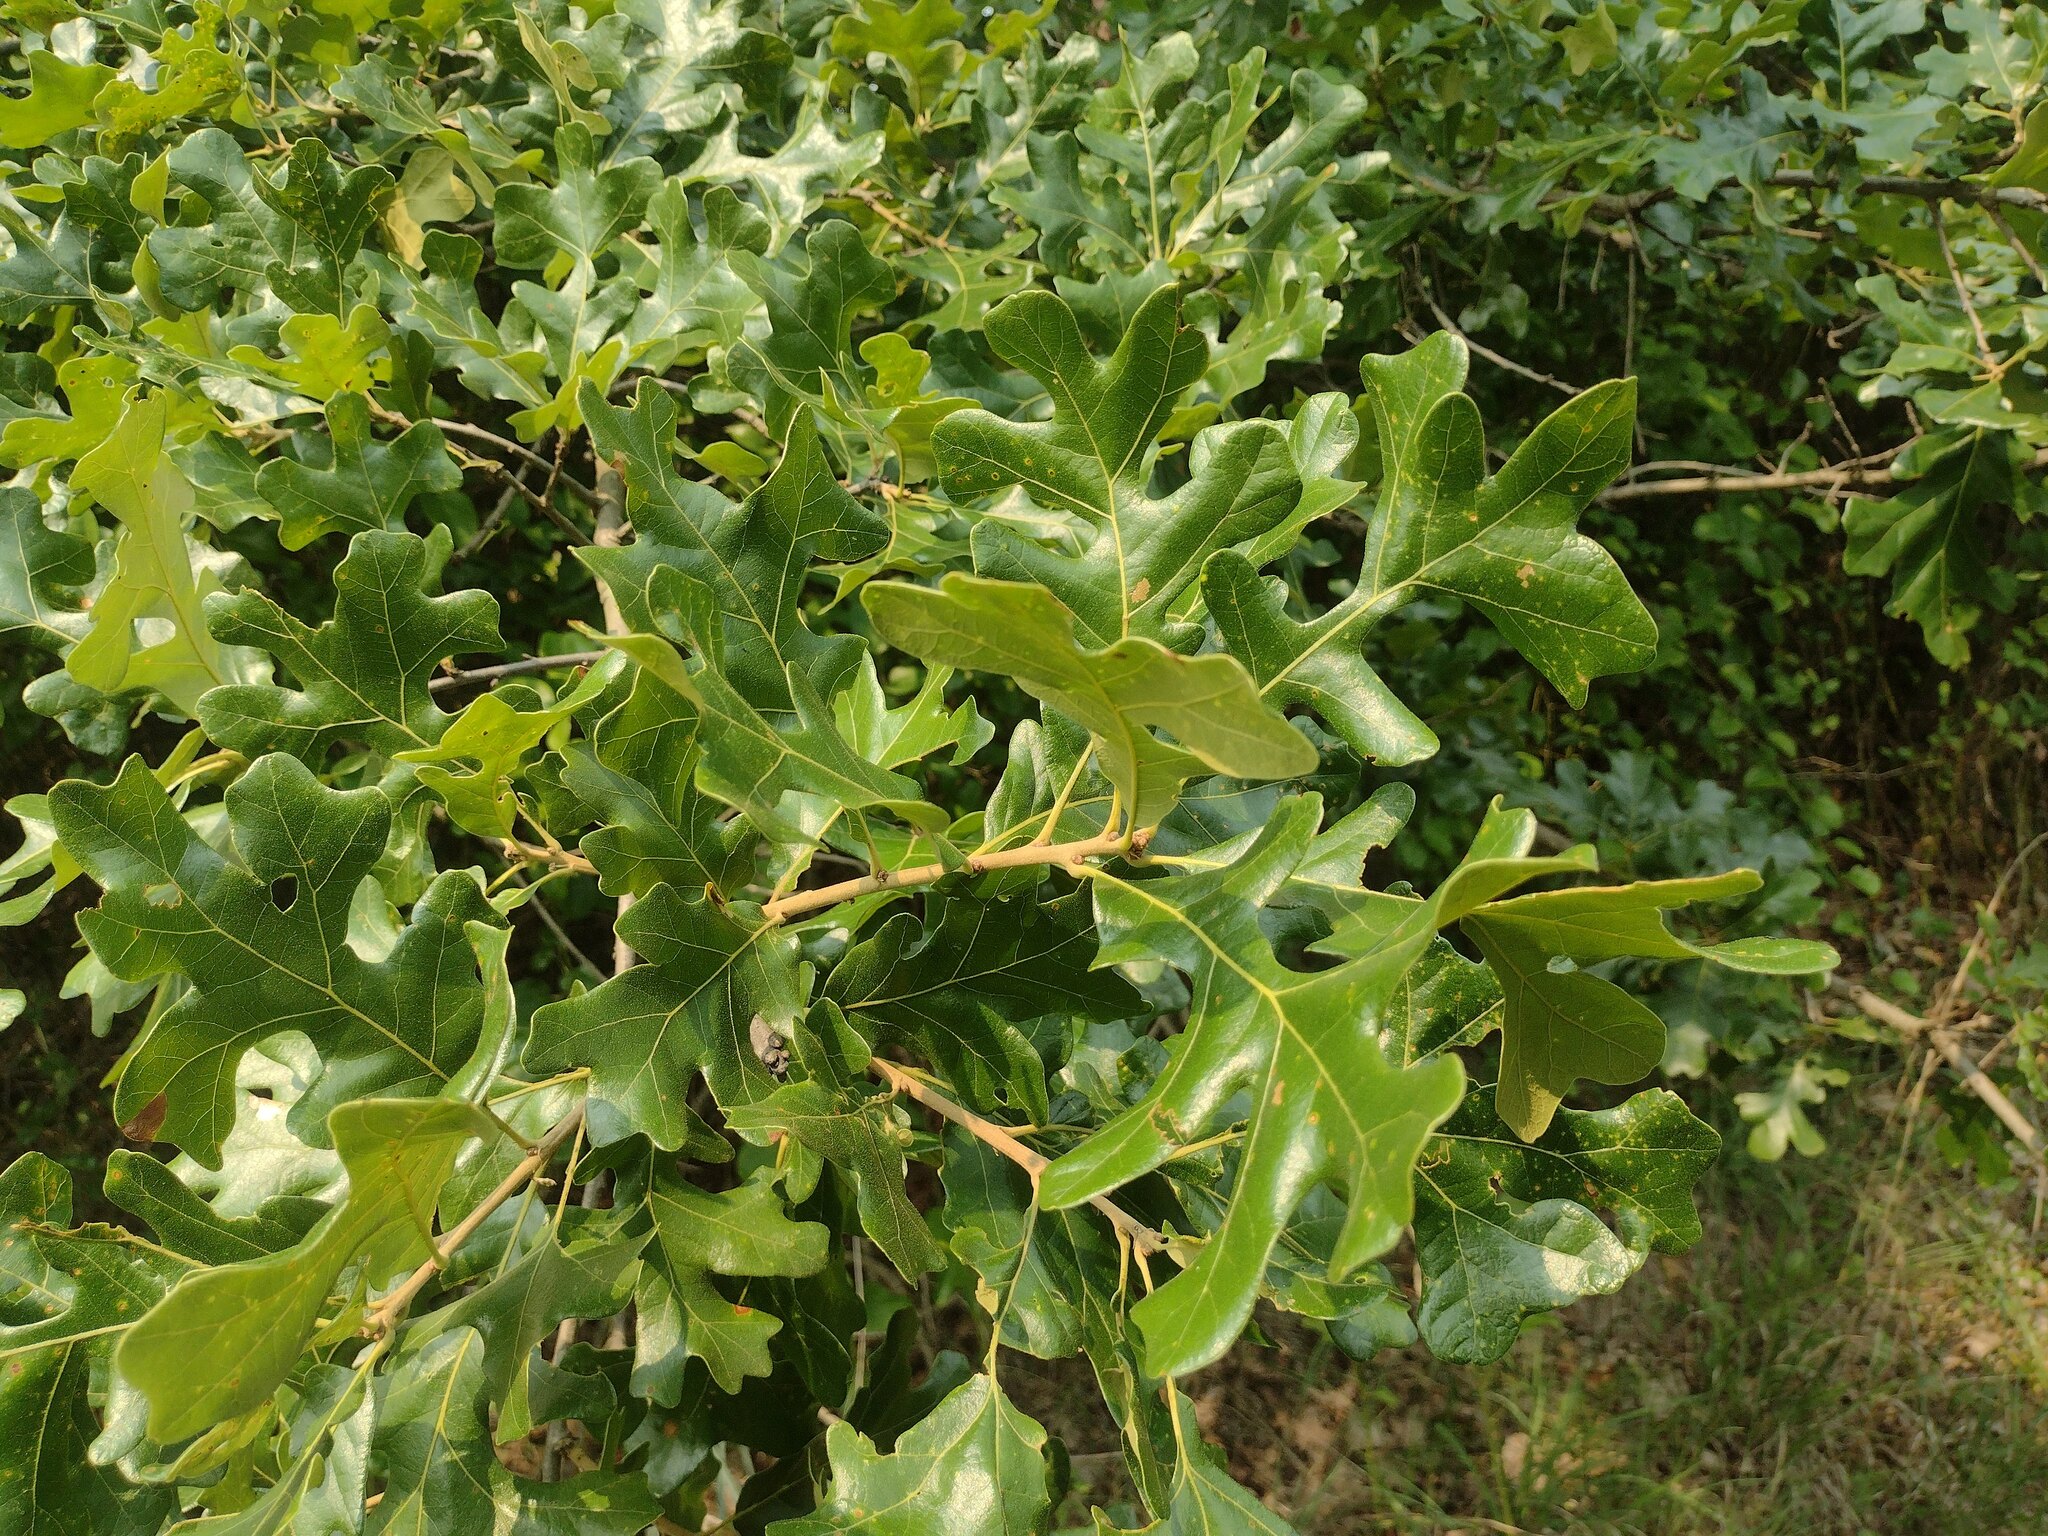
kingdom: Plantae
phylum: Tracheophyta
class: Magnoliopsida
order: Fagales
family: Fagaceae
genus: Quercus
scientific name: Quercus stellata
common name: Post oak
